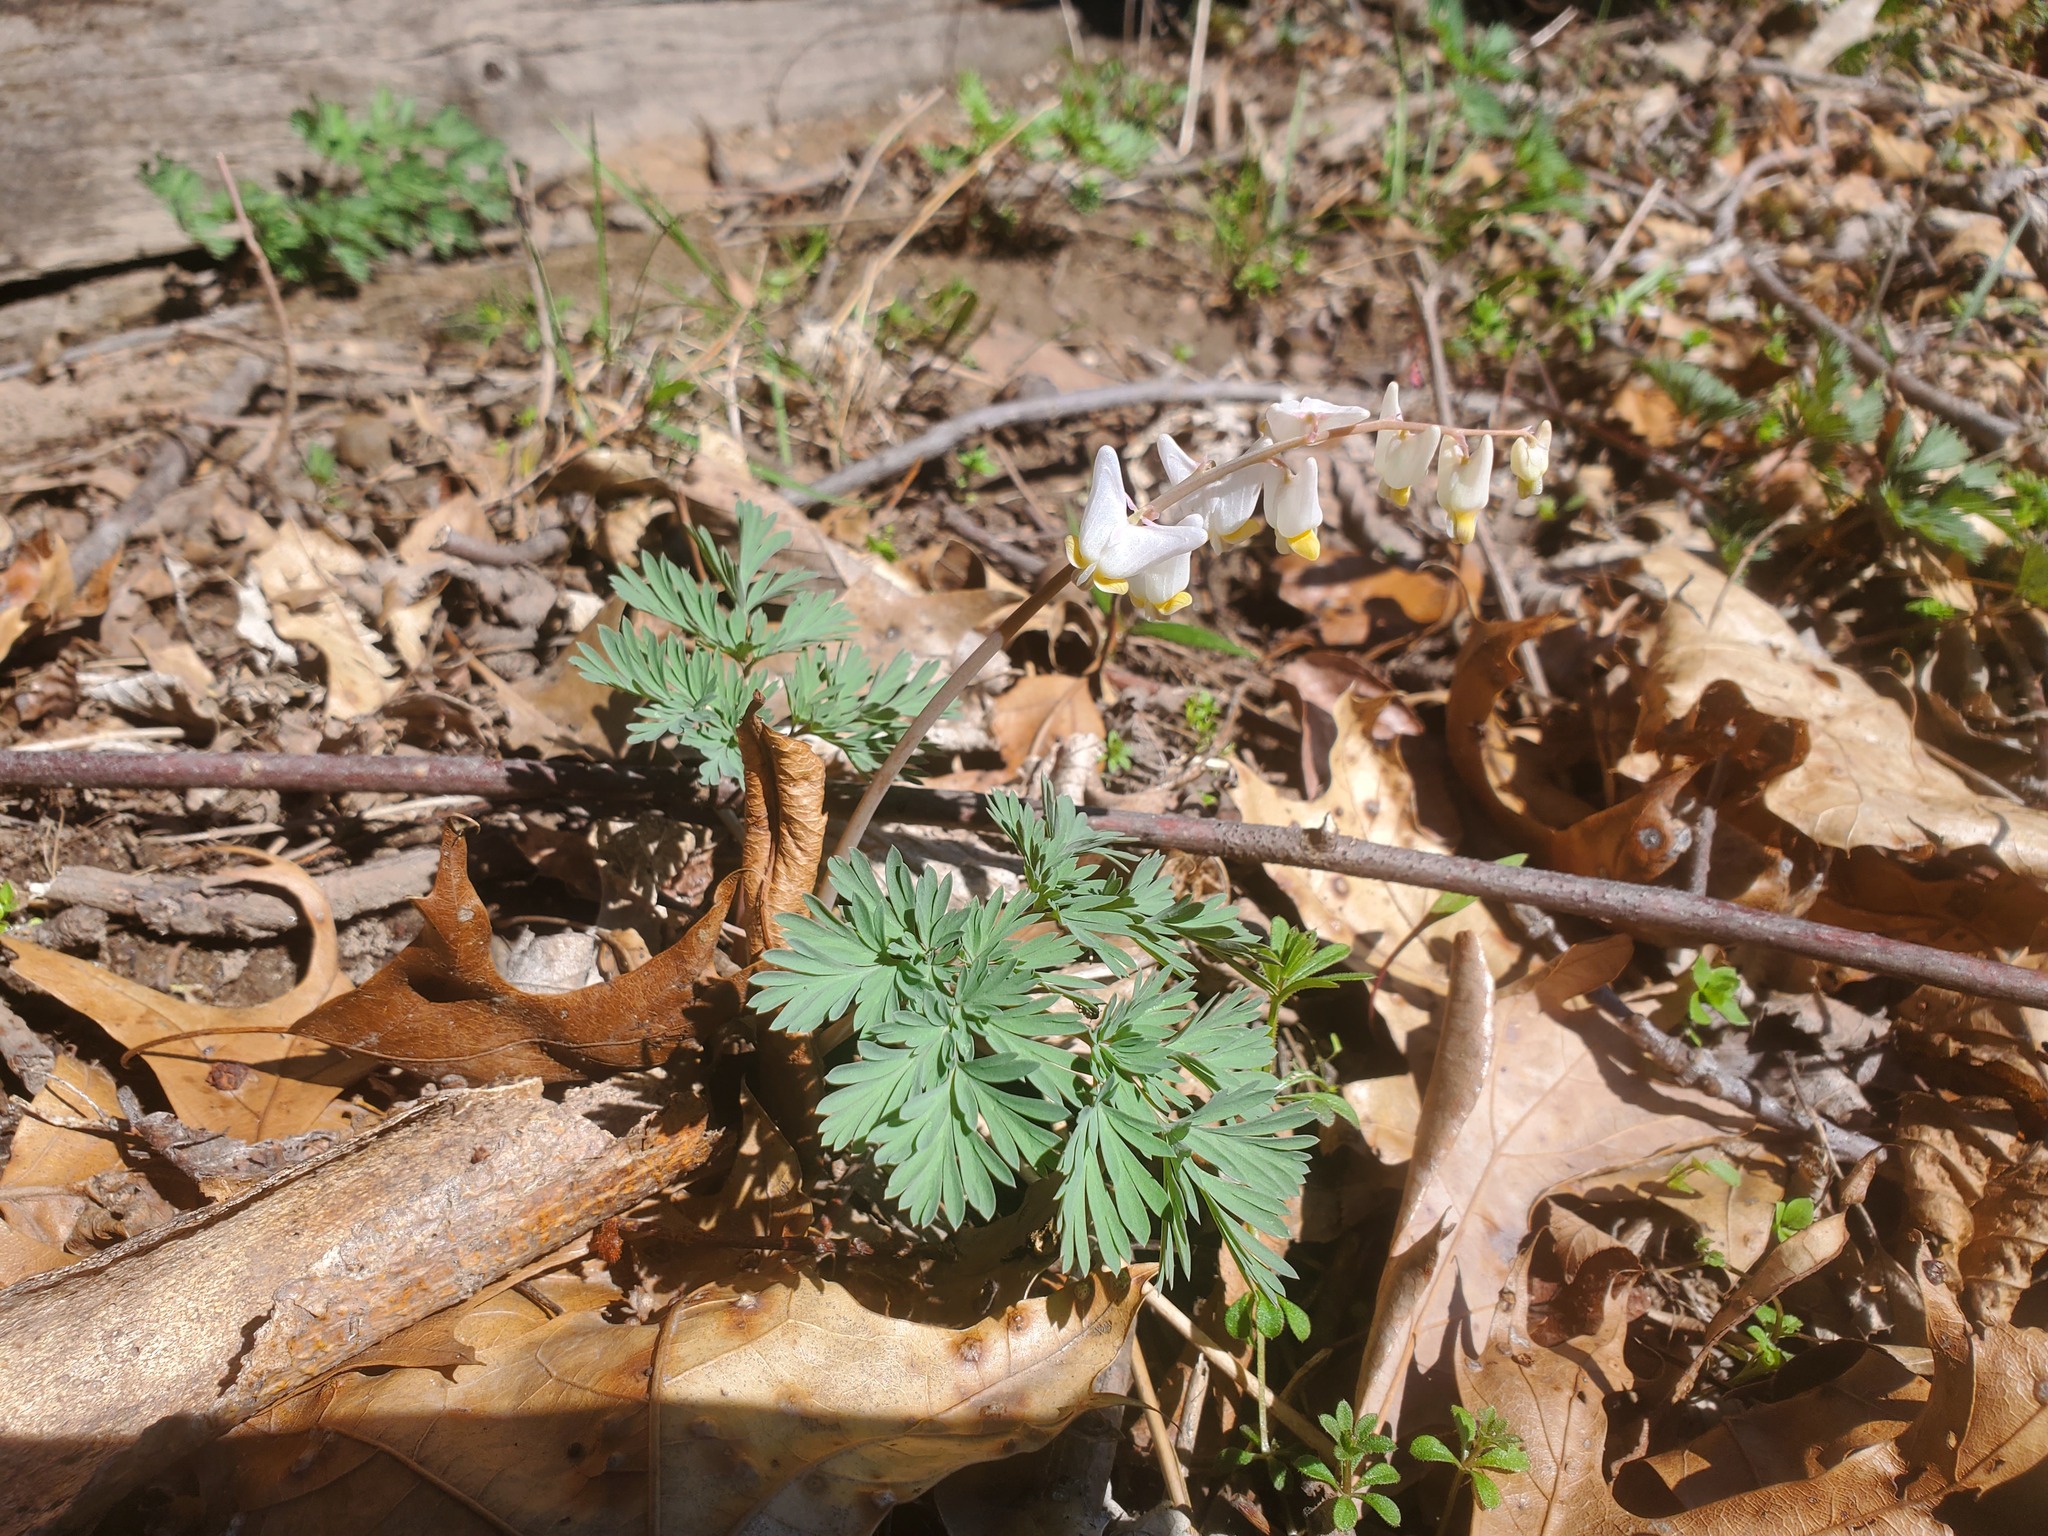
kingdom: Plantae
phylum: Tracheophyta
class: Magnoliopsida
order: Ranunculales
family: Papaveraceae
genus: Dicentra
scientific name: Dicentra cucullaria
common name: Dutchman's breeches
